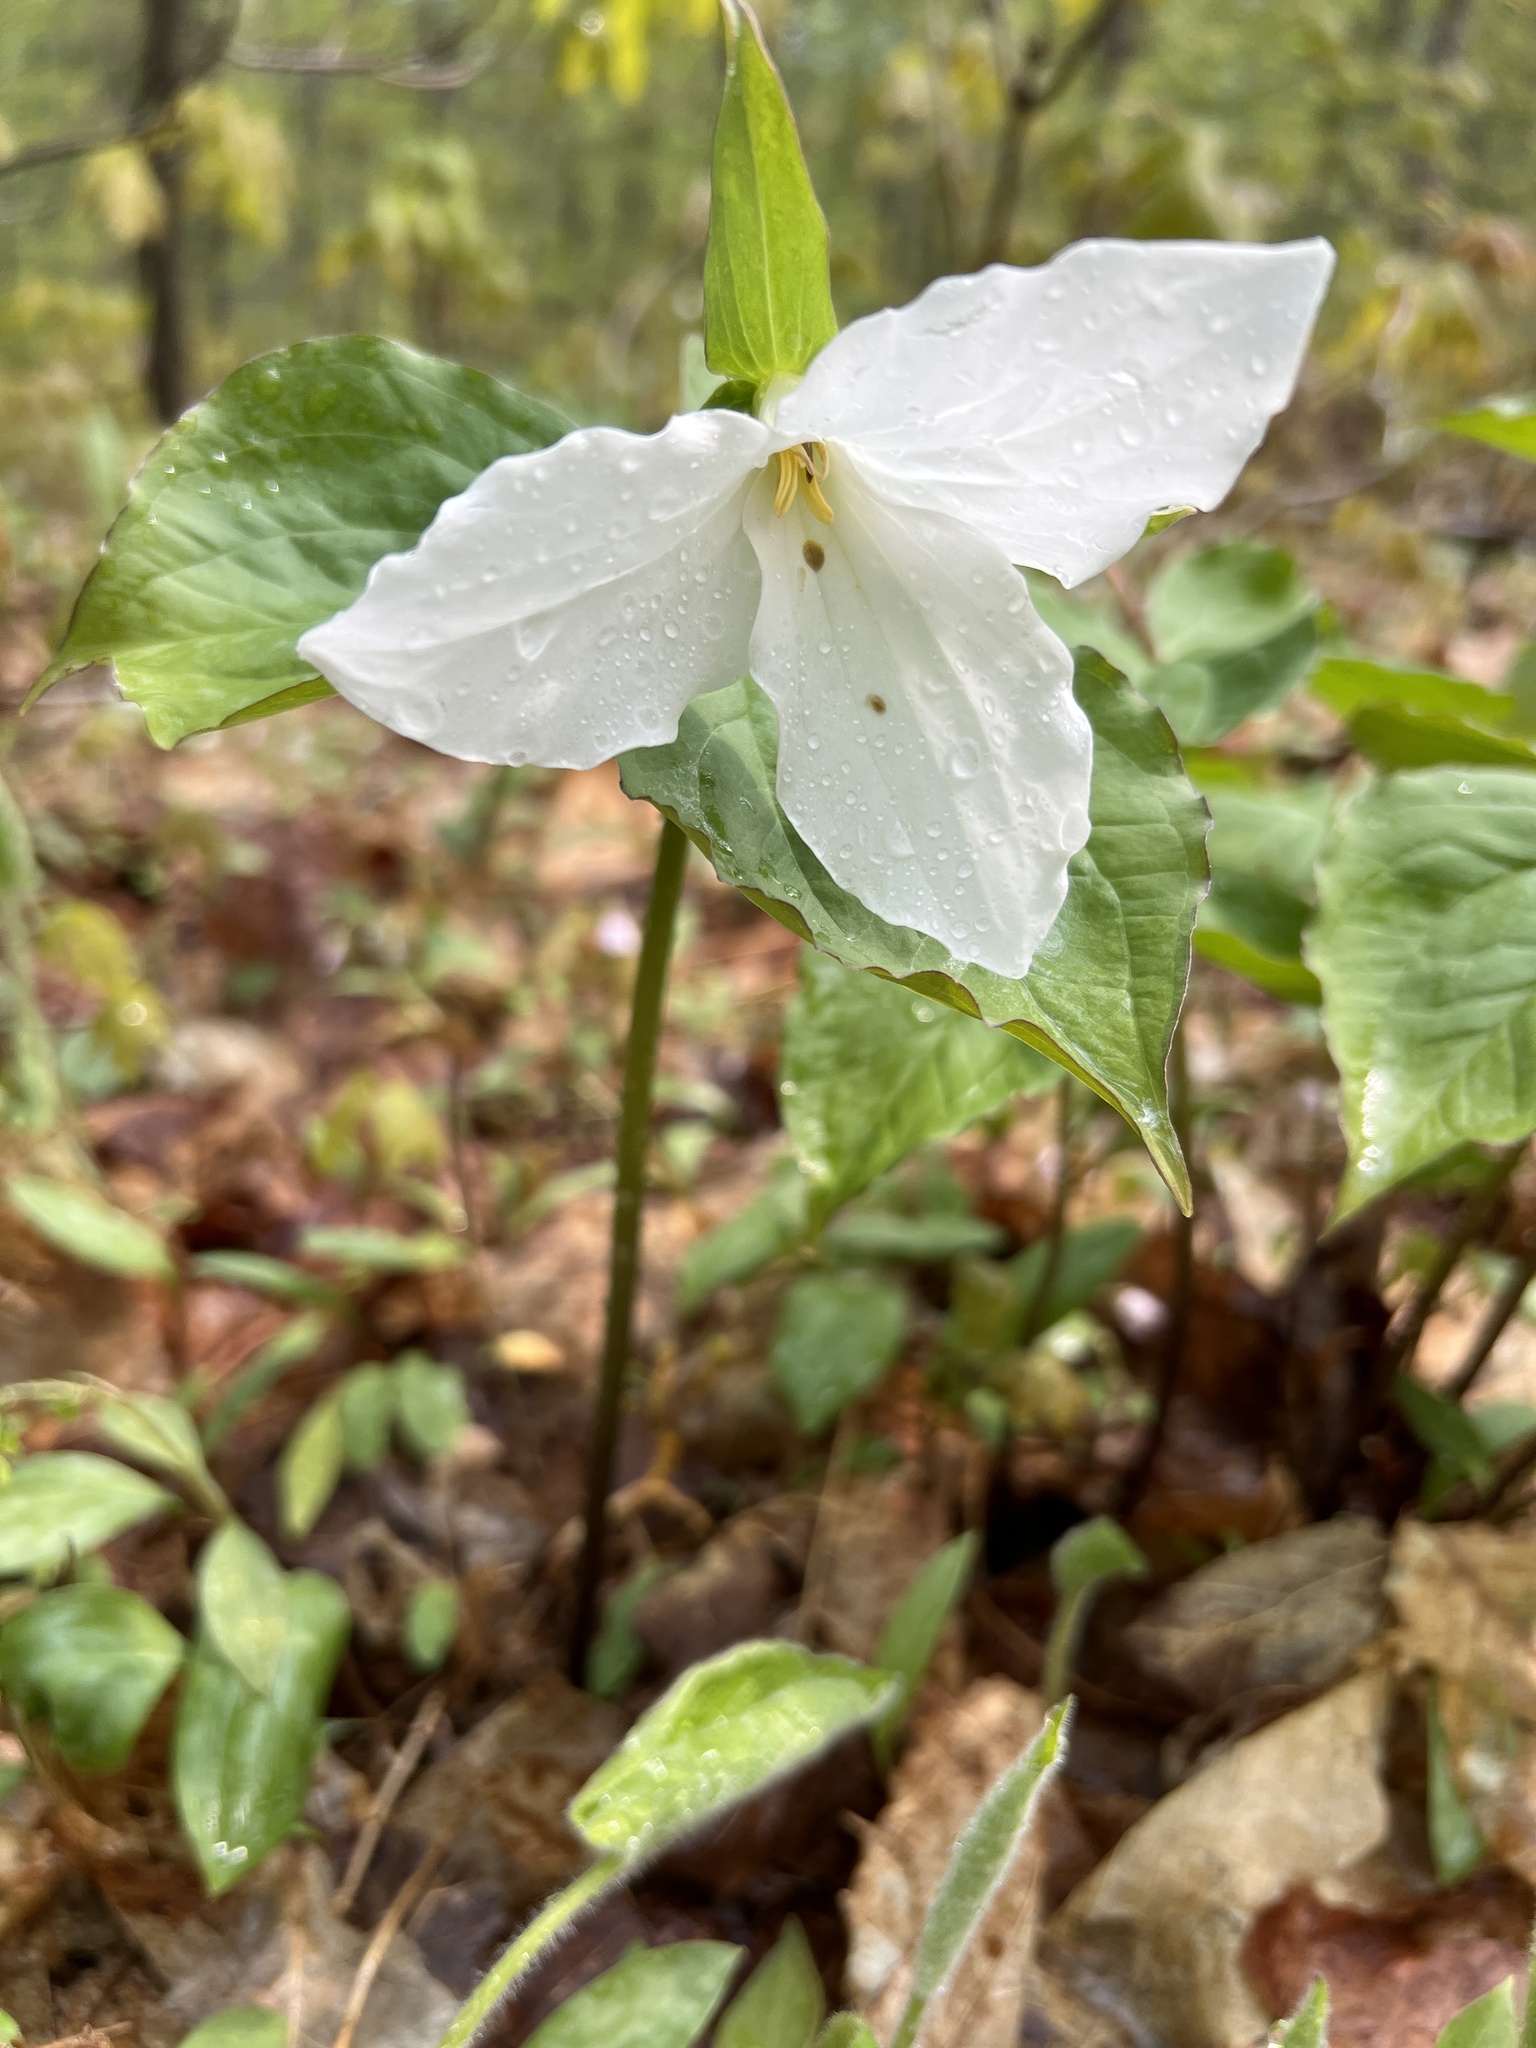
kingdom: Plantae
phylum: Tracheophyta
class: Liliopsida
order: Liliales
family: Melanthiaceae
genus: Trillium
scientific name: Trillium grandiflorum
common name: Great white trillium
